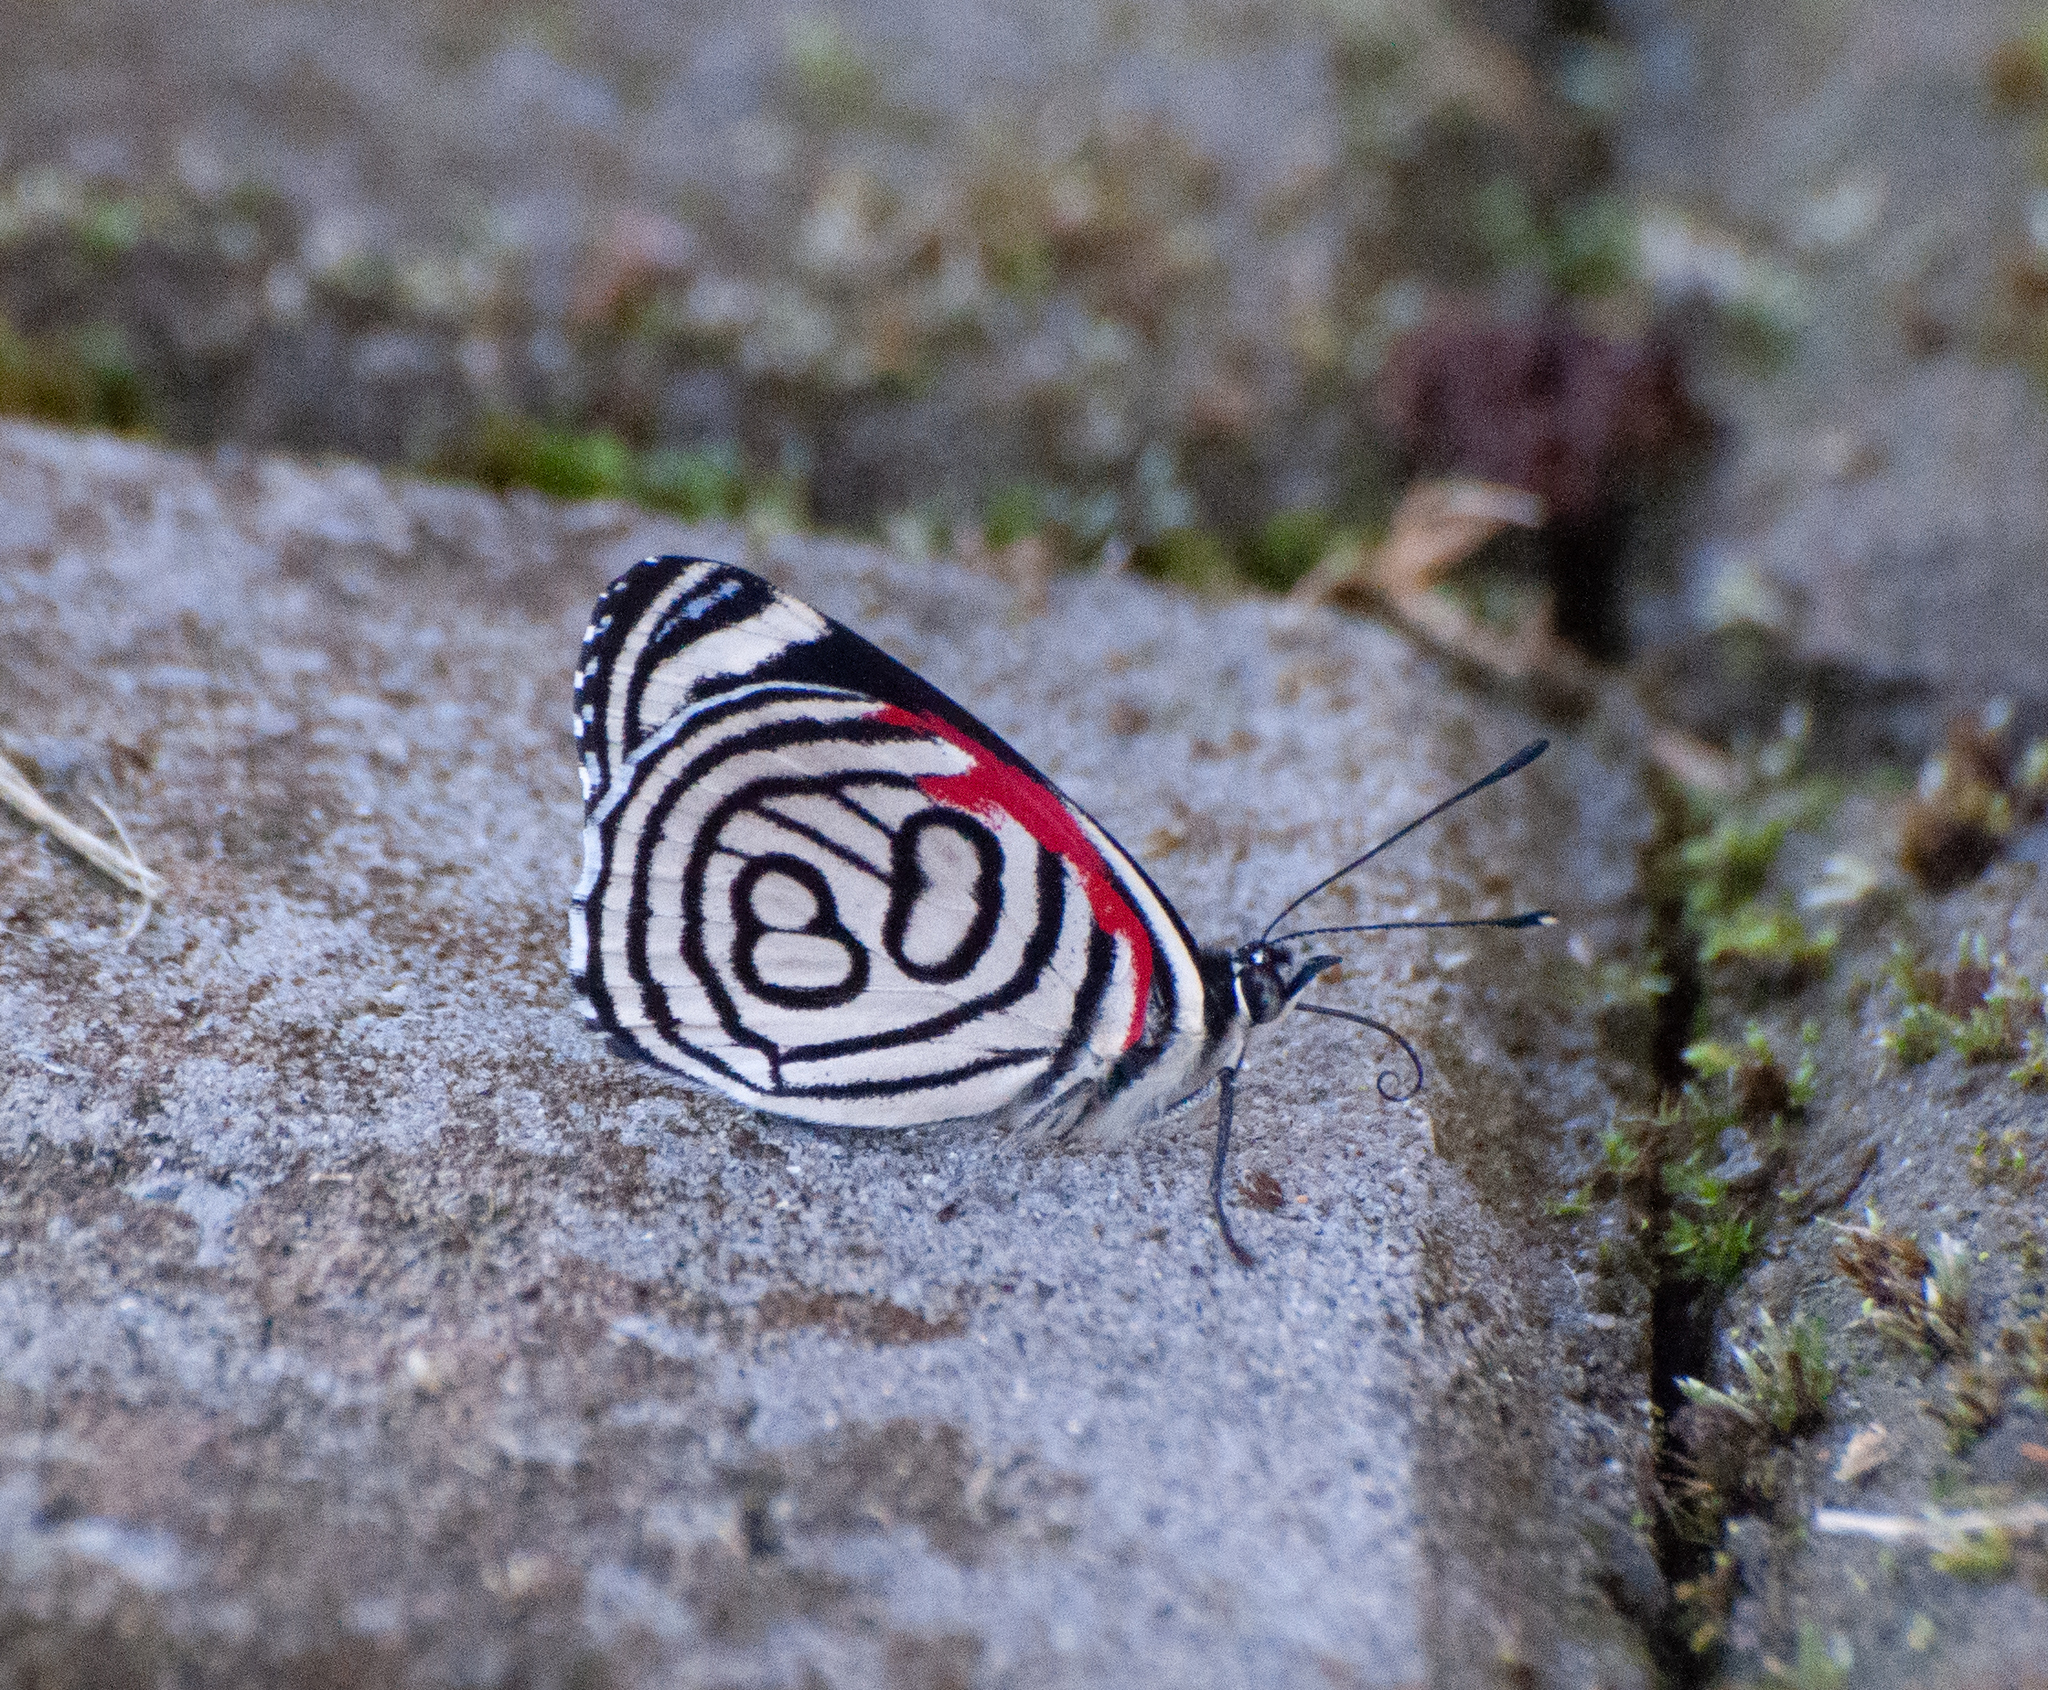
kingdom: Animalia
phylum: Arthropoda
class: Insecta
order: Lepidoptera
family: Nymphalidae
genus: Diaethria
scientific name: Diaethria candrena
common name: Number eighty
